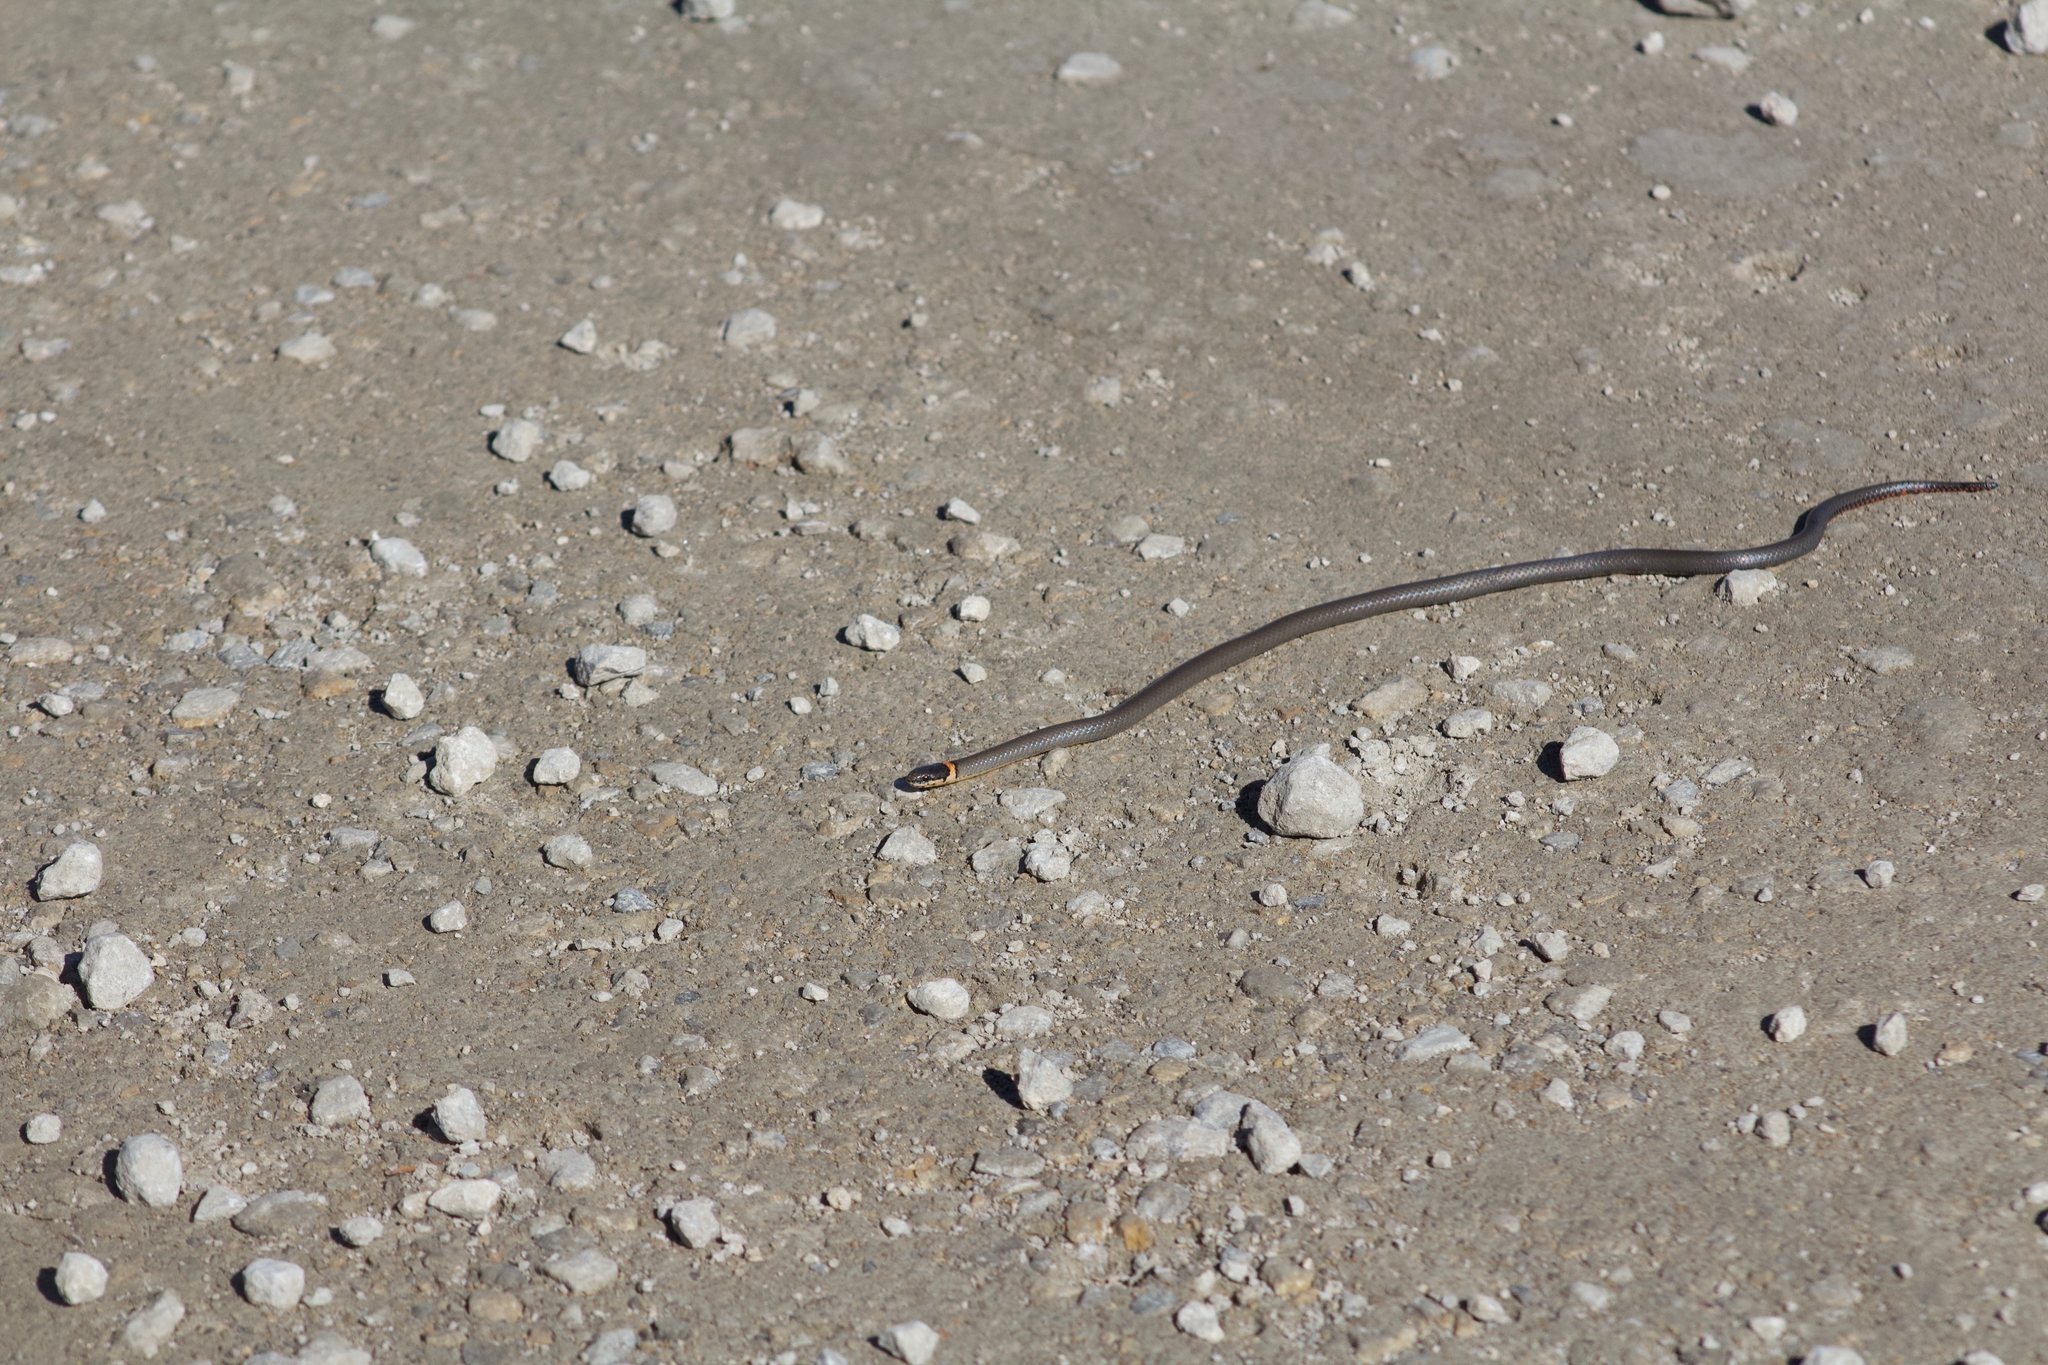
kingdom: Animalia
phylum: Chordata
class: Squamata
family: Colubridae
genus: Diadophis
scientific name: Diadophis punctatus
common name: Ringneck snake
